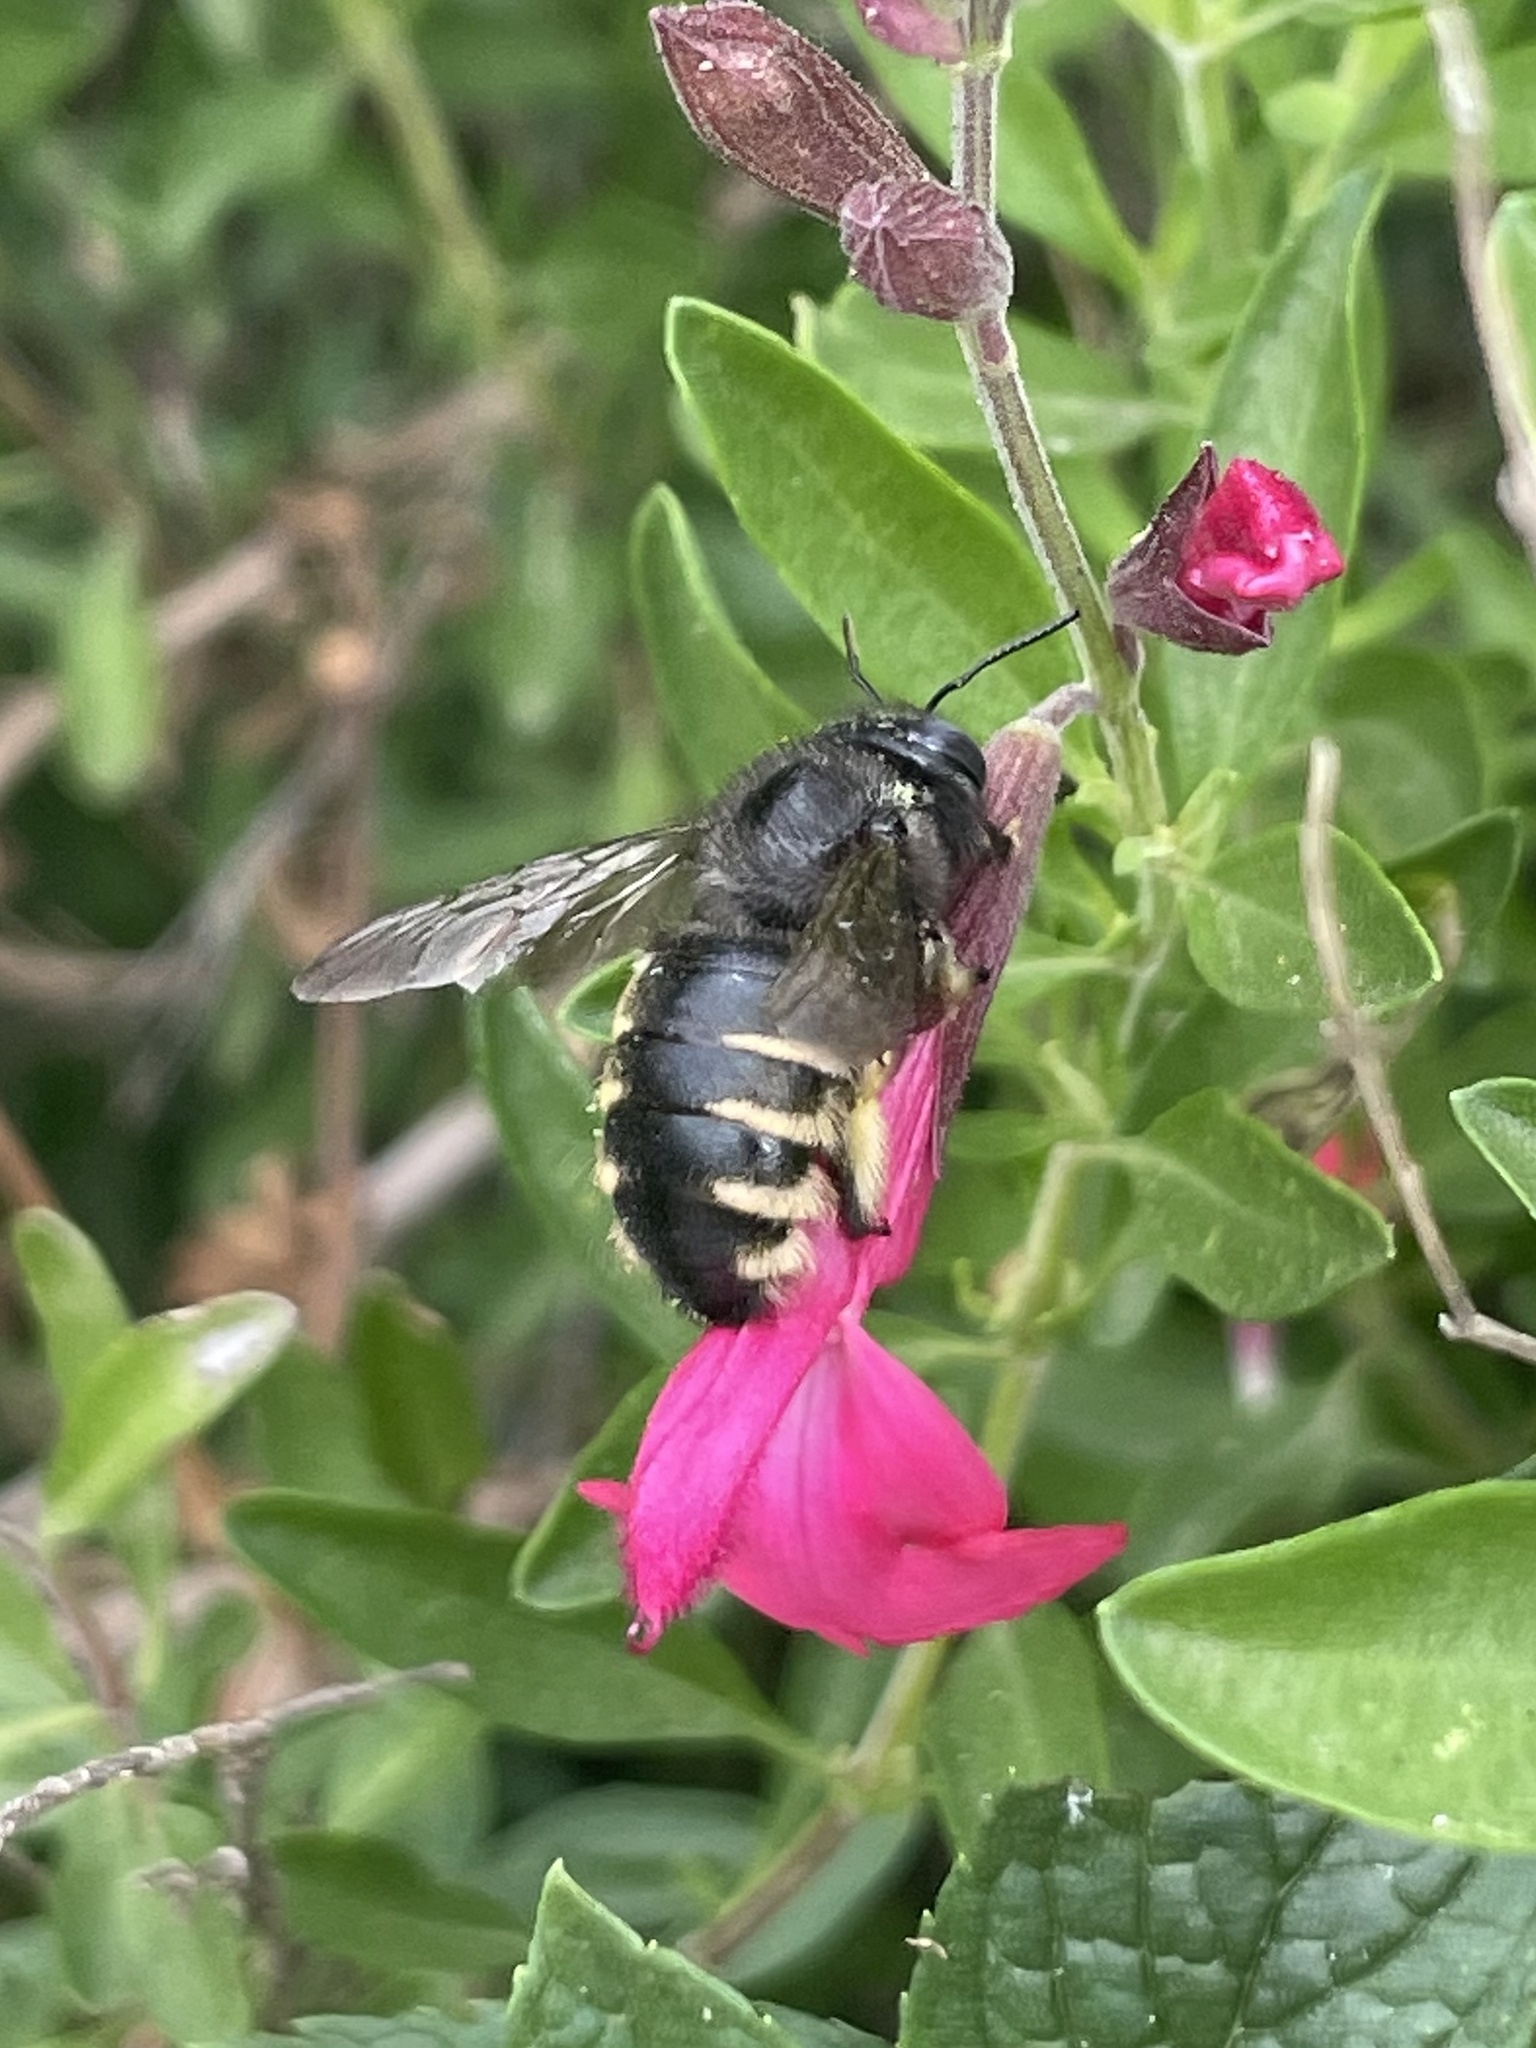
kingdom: Animalia
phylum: Arthropoda
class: Insecta
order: Hymenoptera
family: Apidae
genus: Xylocopa
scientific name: Xylocopa tabaniformis
